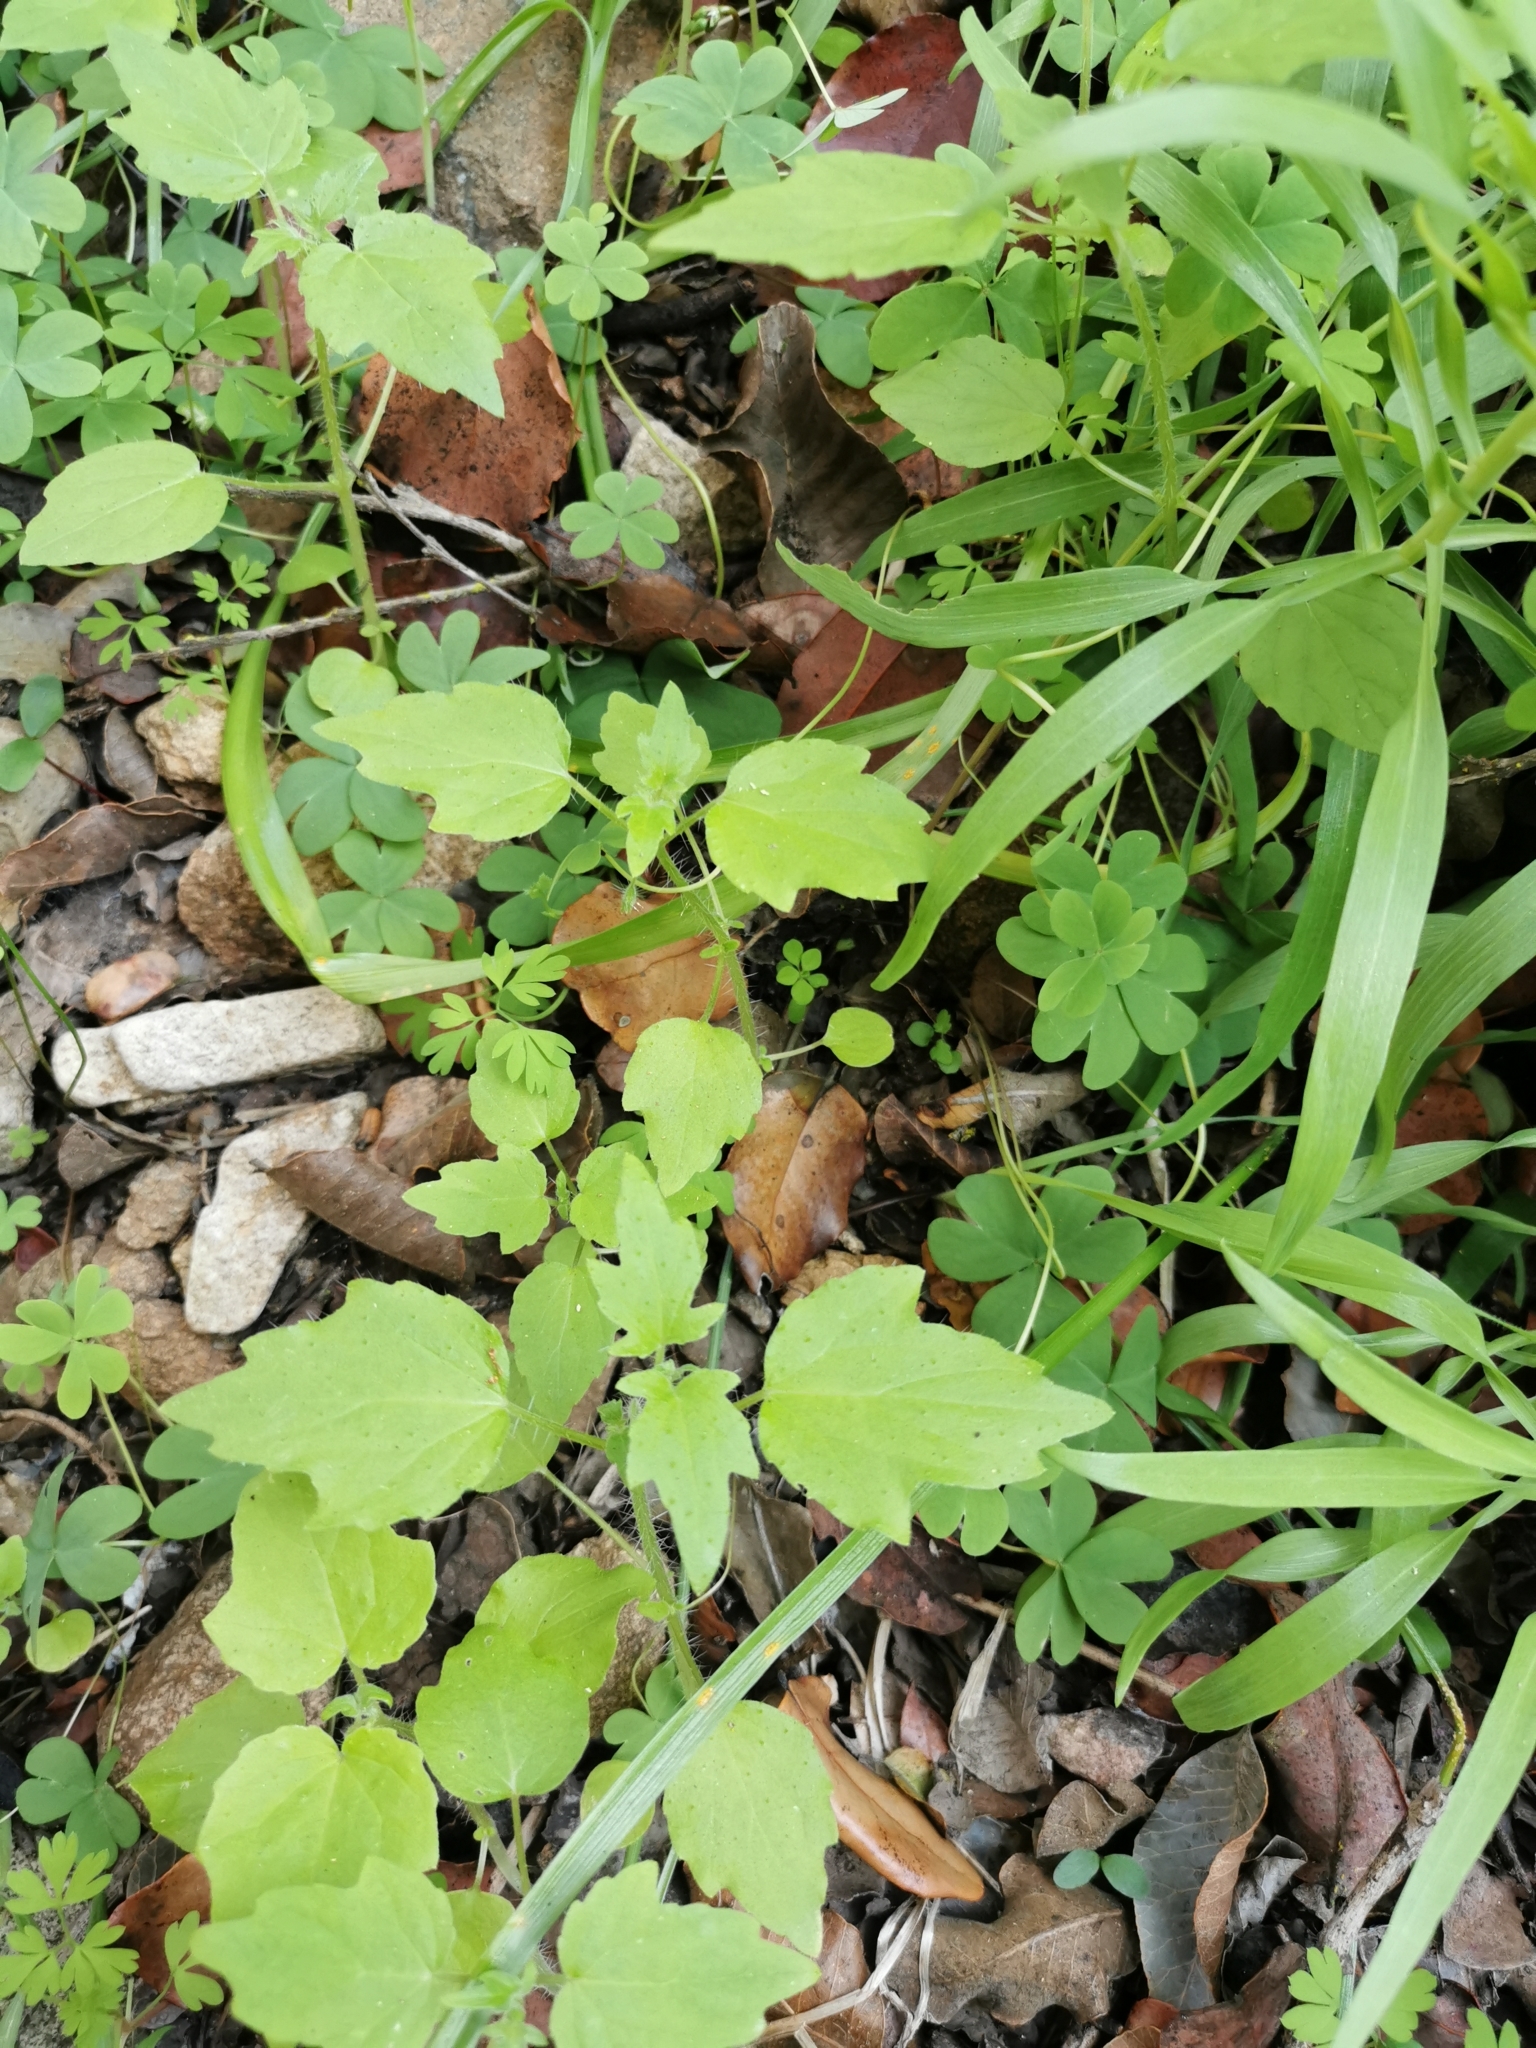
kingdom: Plantae
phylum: Tracheophyta
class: Magnoliopsida
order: Cornales
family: Loasaceae
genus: Loasa
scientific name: Loasa triloba
